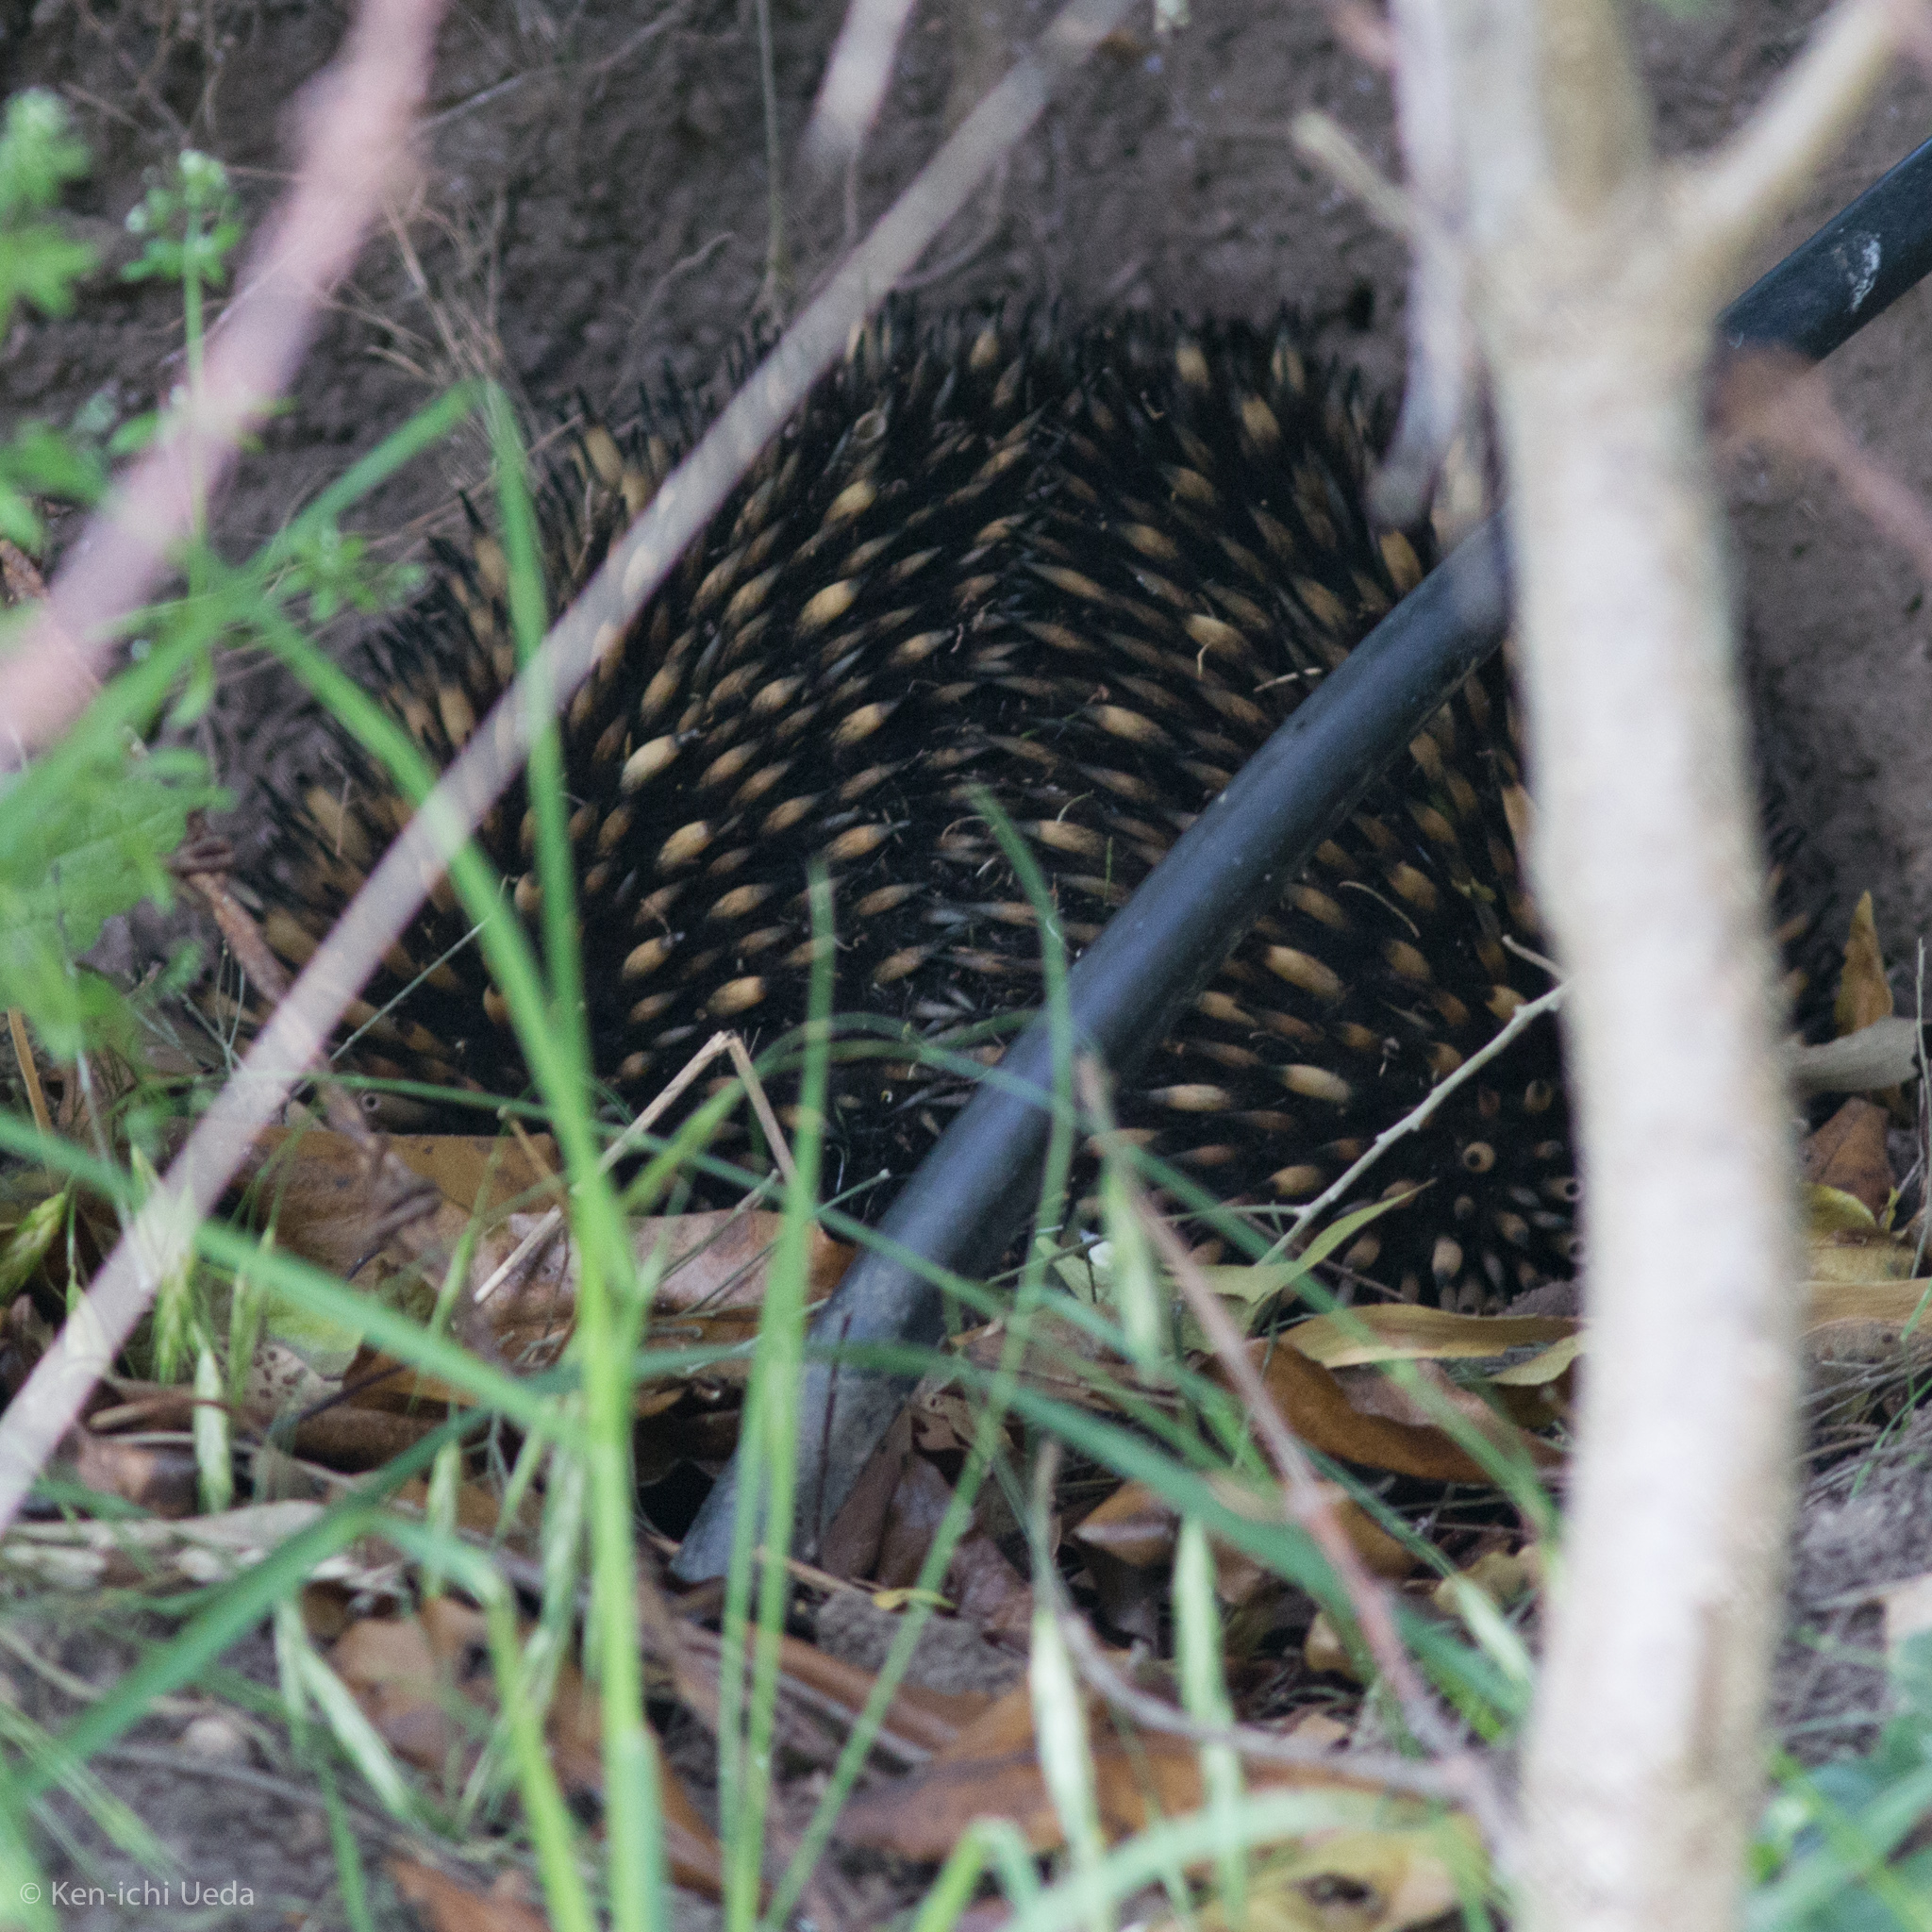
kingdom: Animalia
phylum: Chordata
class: Mammalia
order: Monotremata
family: Tachyglossidae
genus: Tachyglossus
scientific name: Tachyglossus aculeatus
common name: Short-beaked echidna
